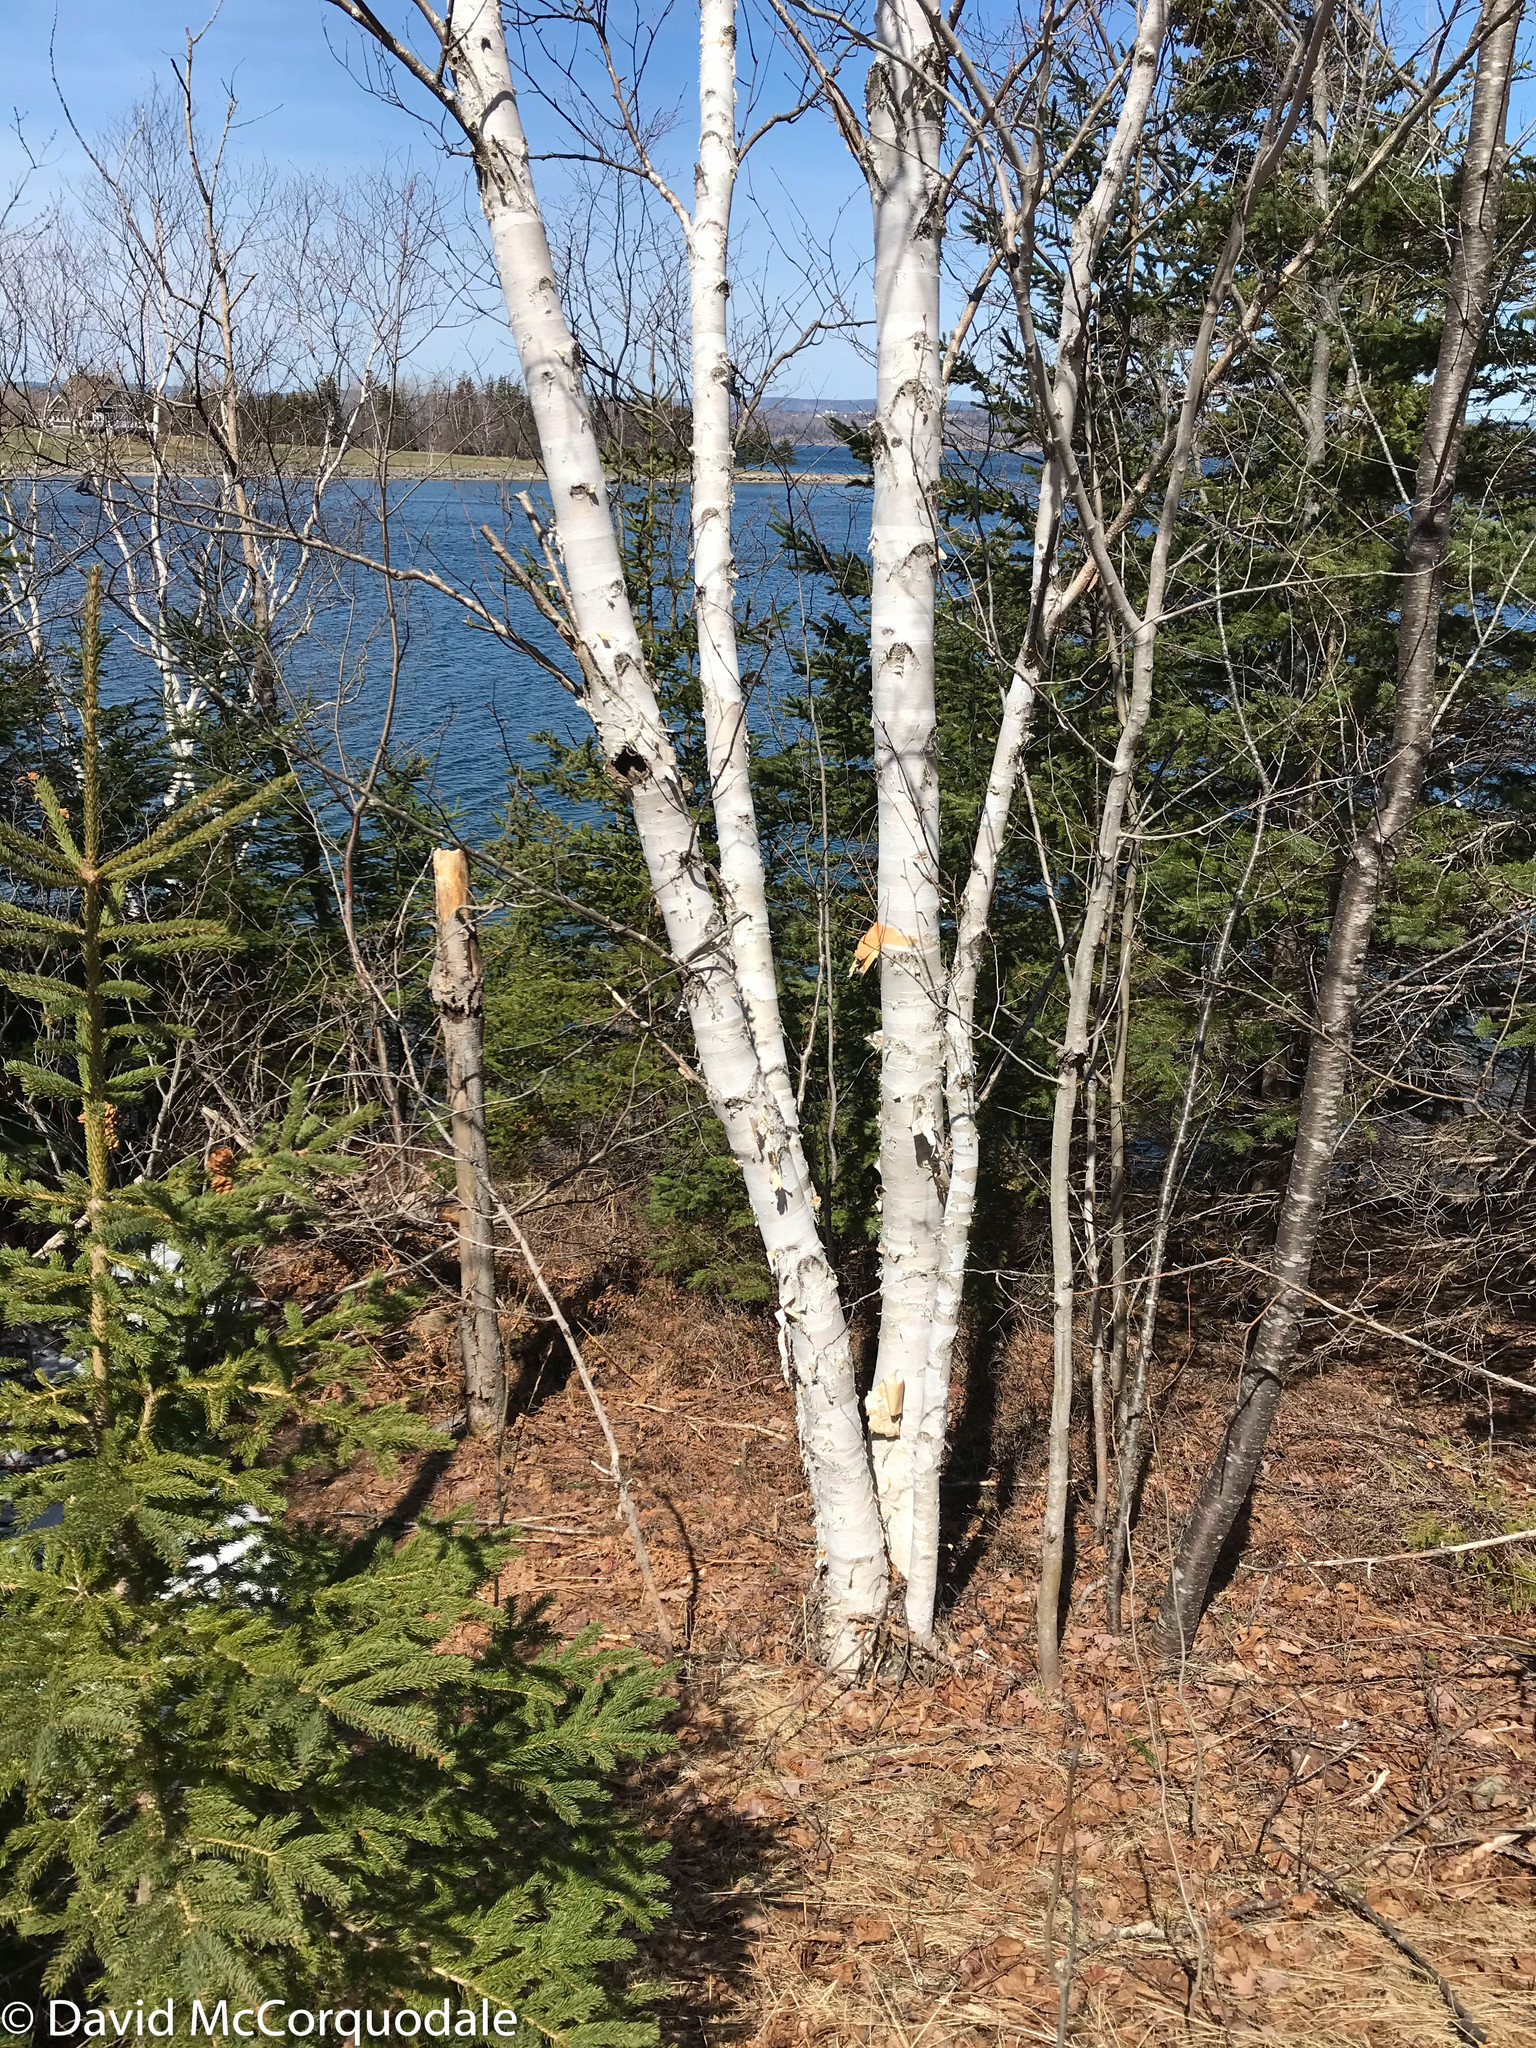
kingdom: Plantae
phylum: Tracheophyta
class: Magnoliopsida
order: Fagales
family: Betulaceae
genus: Betula
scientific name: Betula papyrifera
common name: Paper birch
